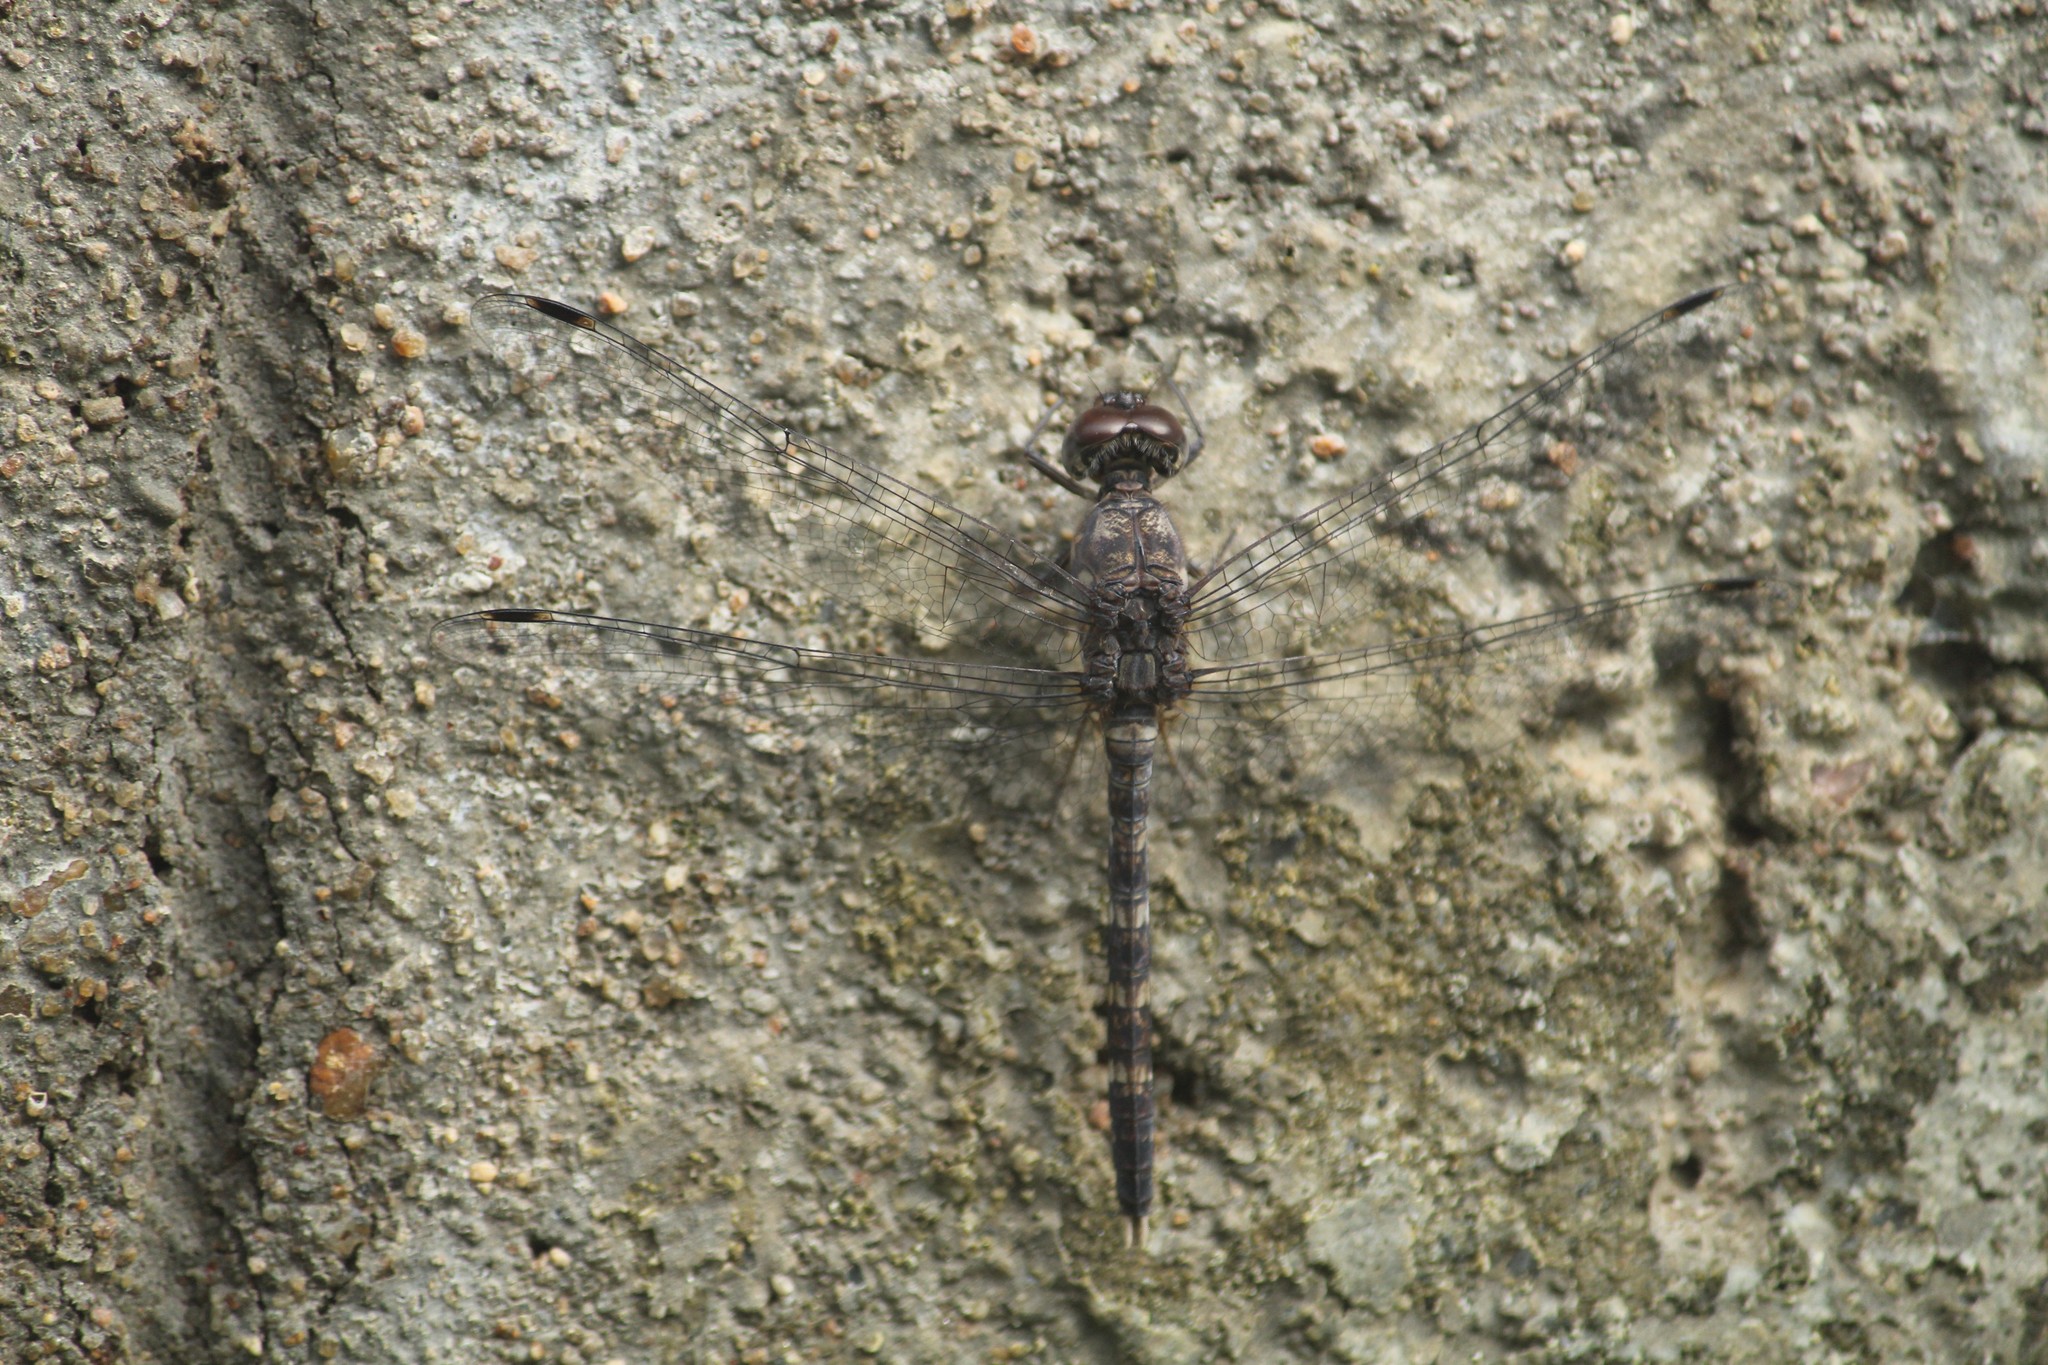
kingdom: Animalia
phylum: Arthropoda
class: Insecta
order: Odonata
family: Libellulidae
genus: Bradinopyga
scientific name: Bradinopyga geminata
